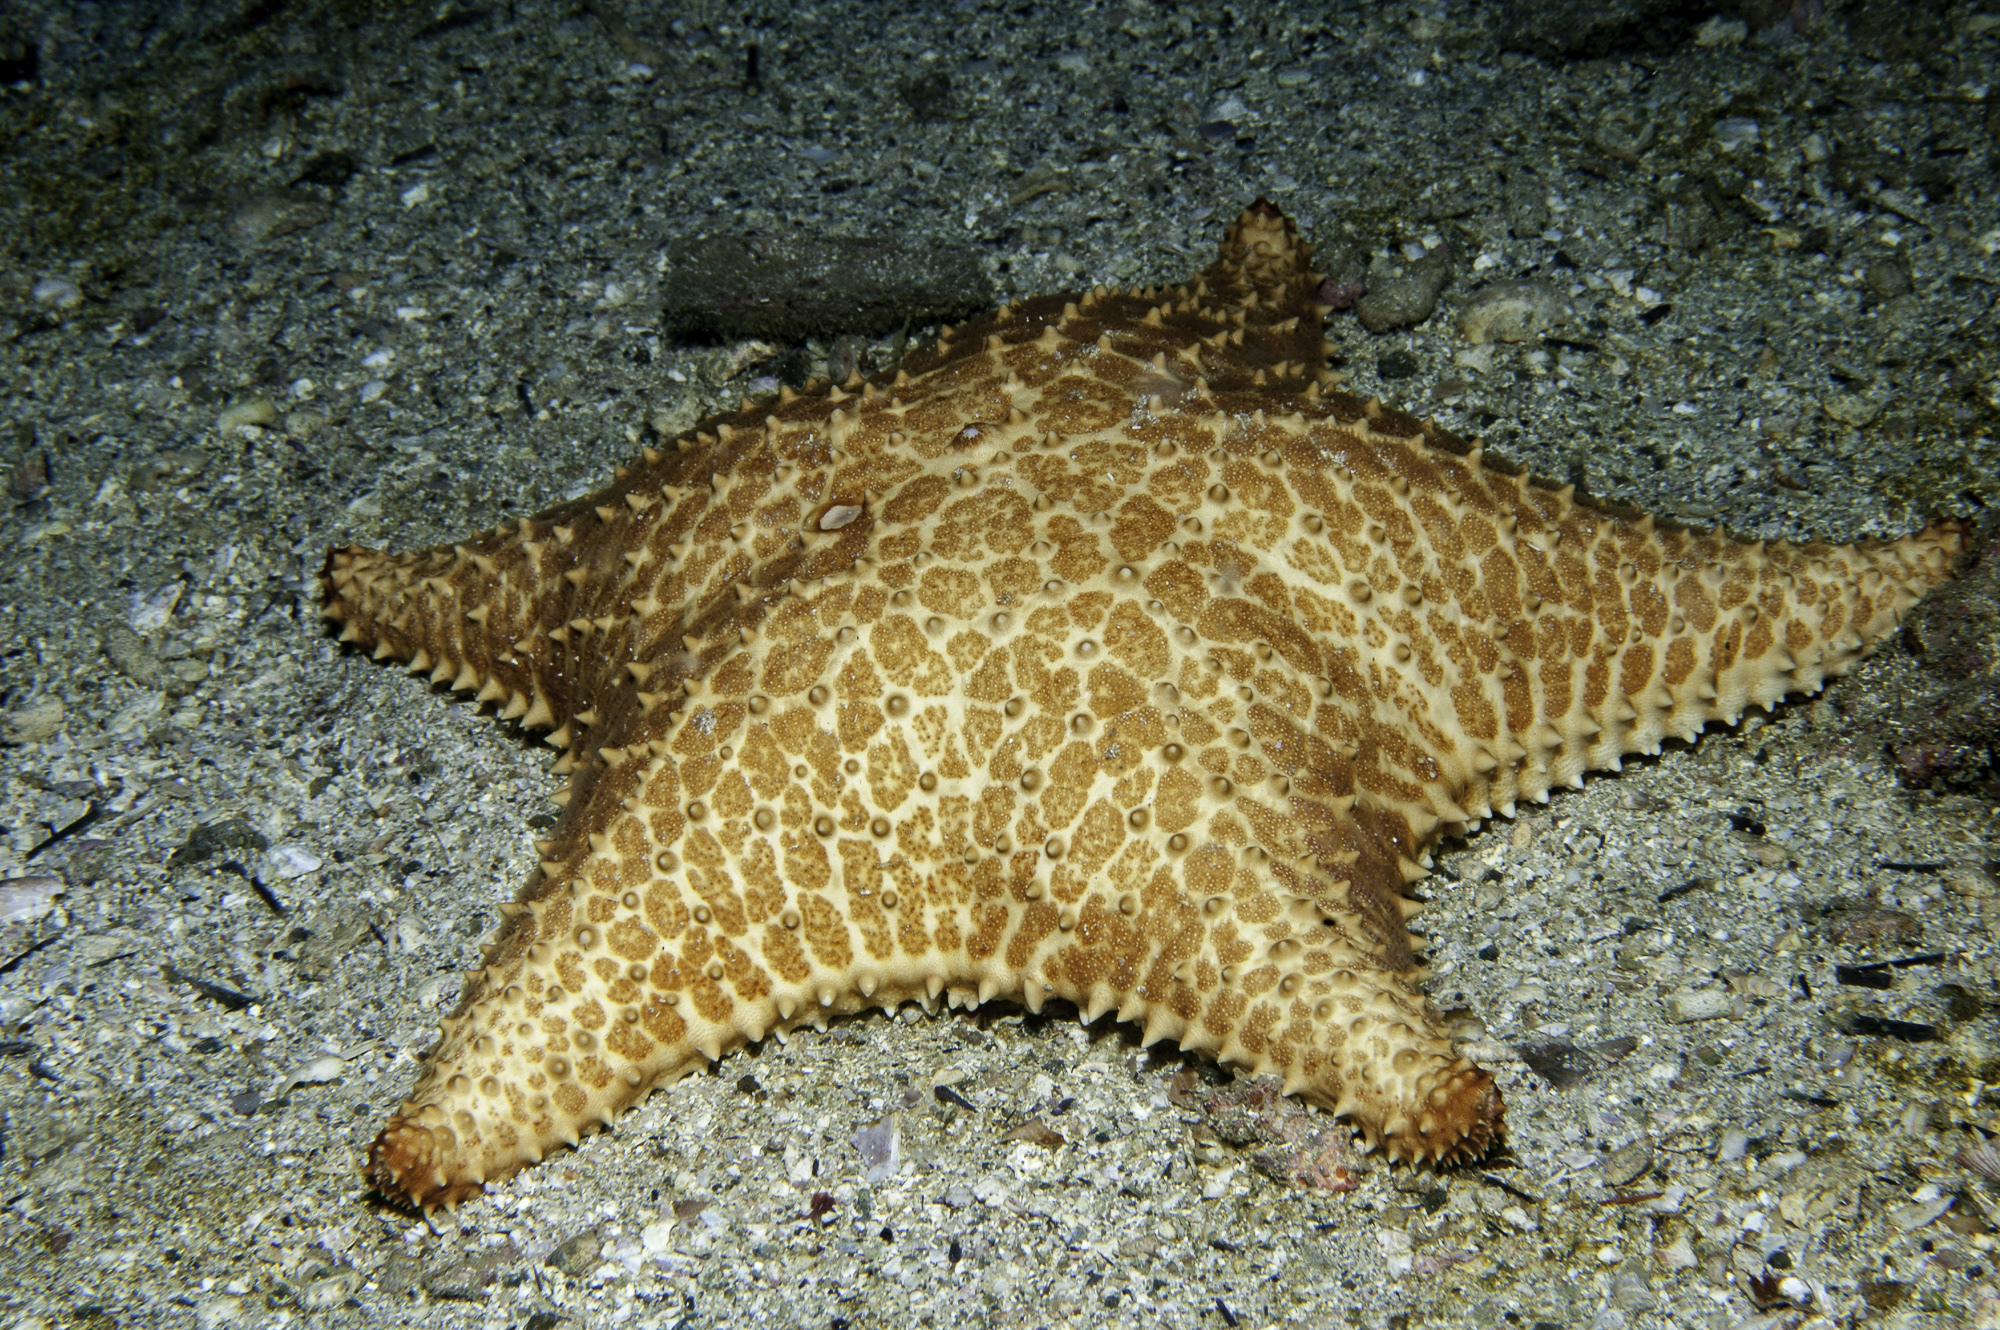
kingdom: Animalia
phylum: Echinodermata
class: Asteroidea
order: Valvatida
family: Oreasteridae
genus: Oreaster
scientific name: Oreaster reticulatus
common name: Cushion sea star
